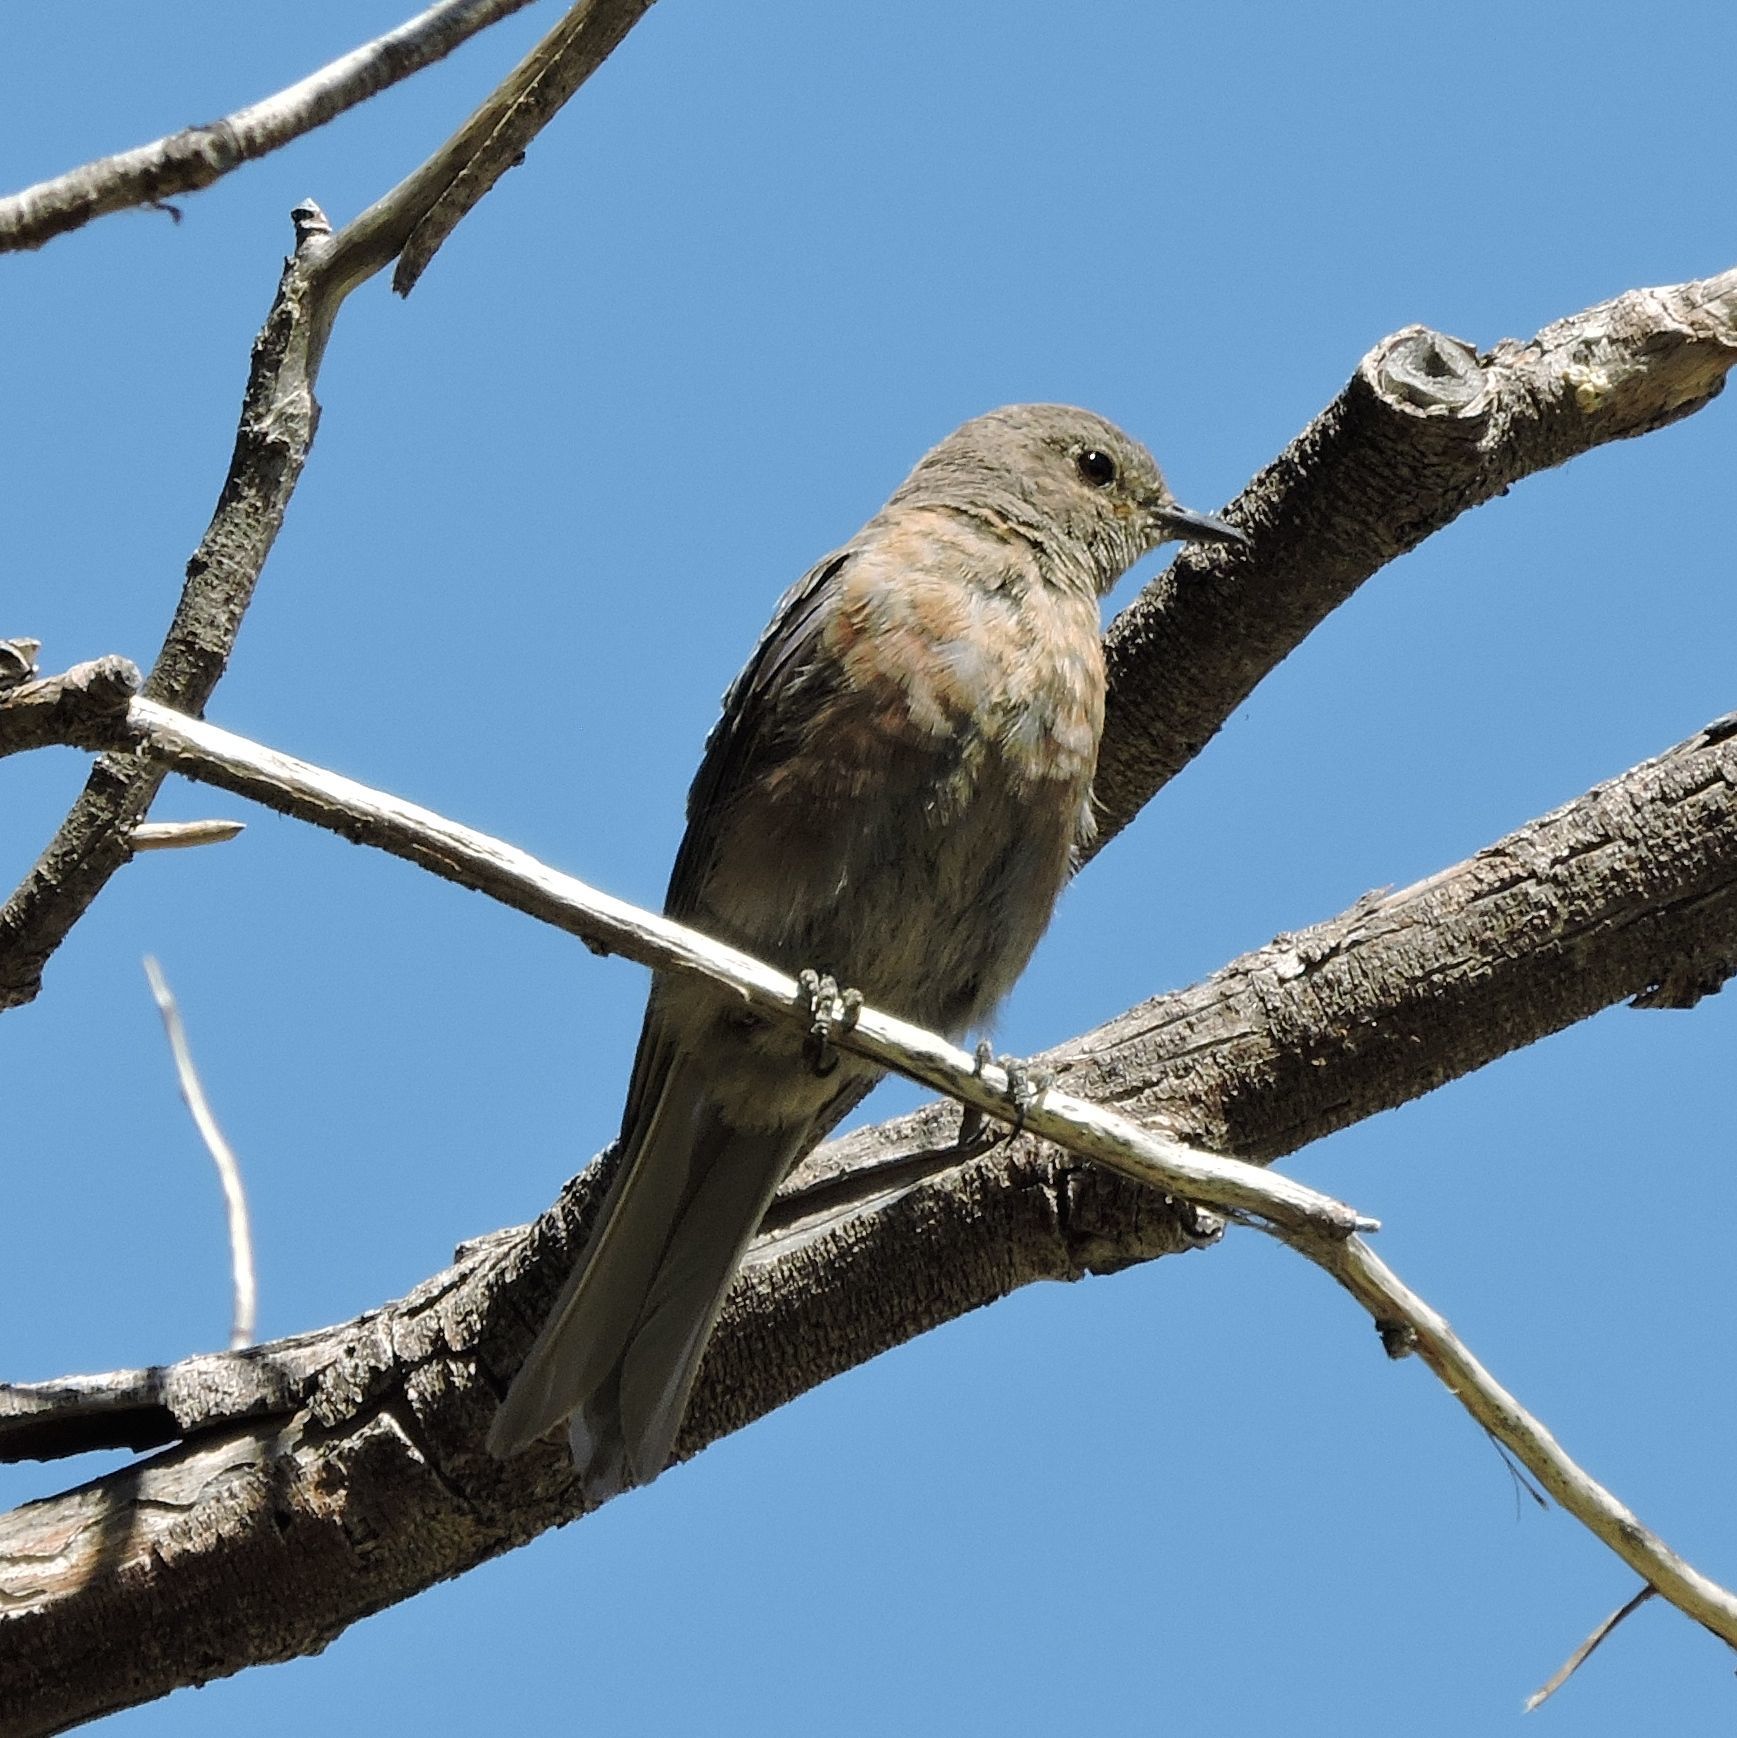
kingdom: Animalia
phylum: Chordata
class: Aves
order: Passeriformes
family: Turdidae
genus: Sialia
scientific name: Sialia mexicana
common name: Western bluebird
